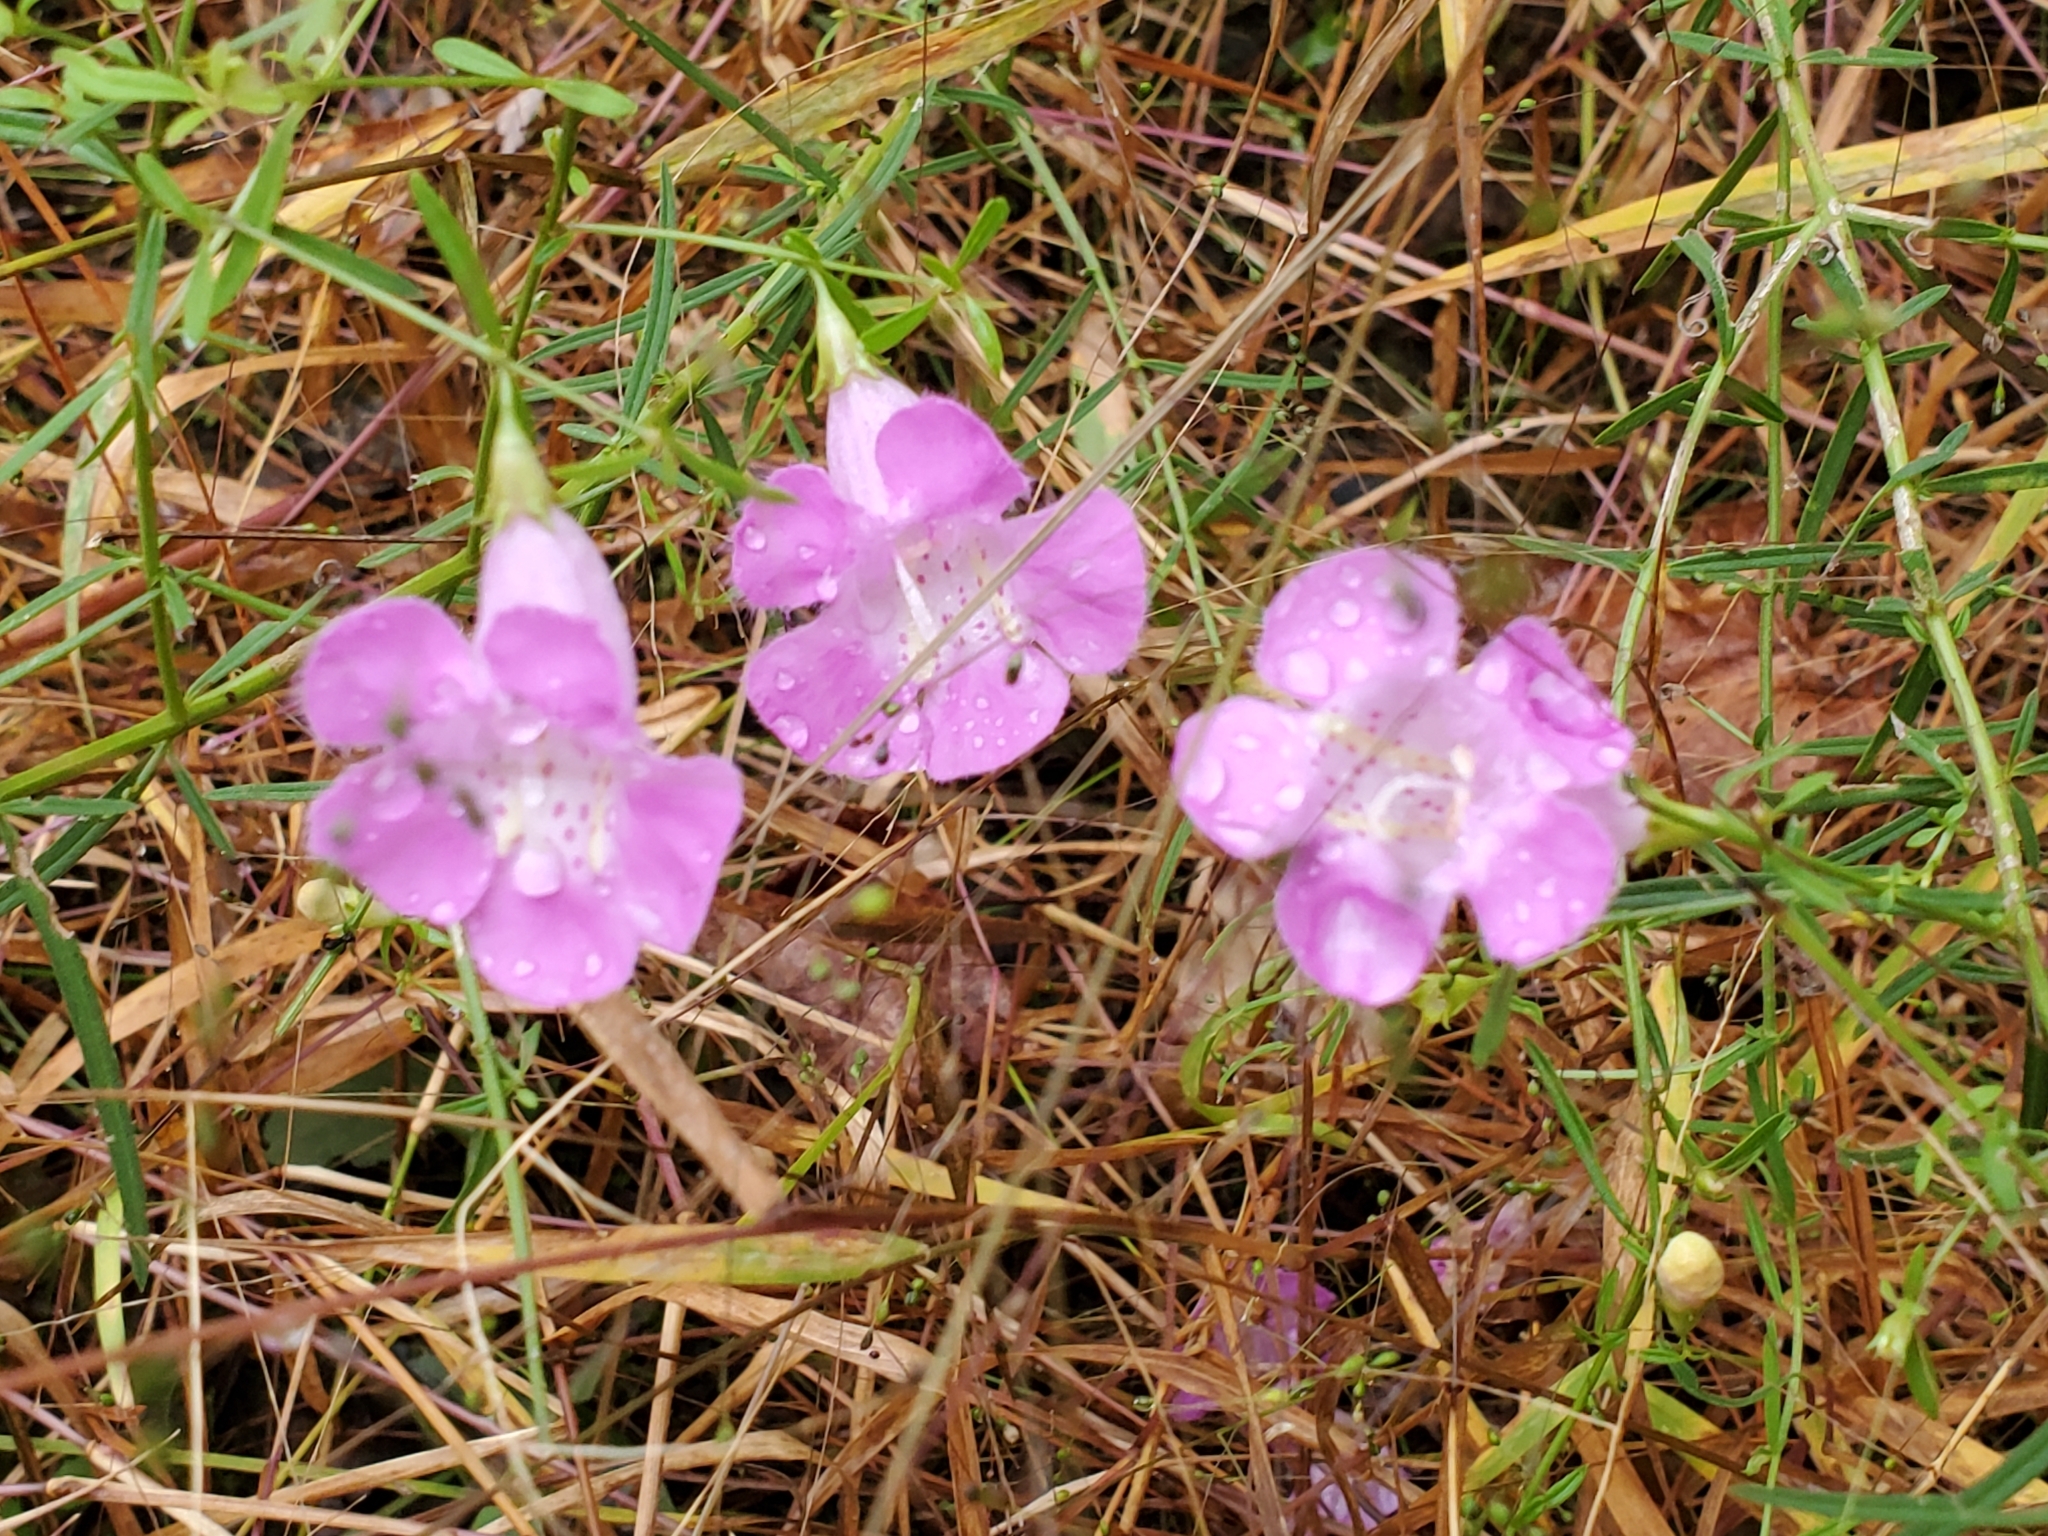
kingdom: Plantae
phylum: Tracheophyta
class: Magnoliopsida
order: Lamiales
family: Orobanchaceae
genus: Agalinis
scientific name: Agalinis purpurea
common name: Purple false foxglove
